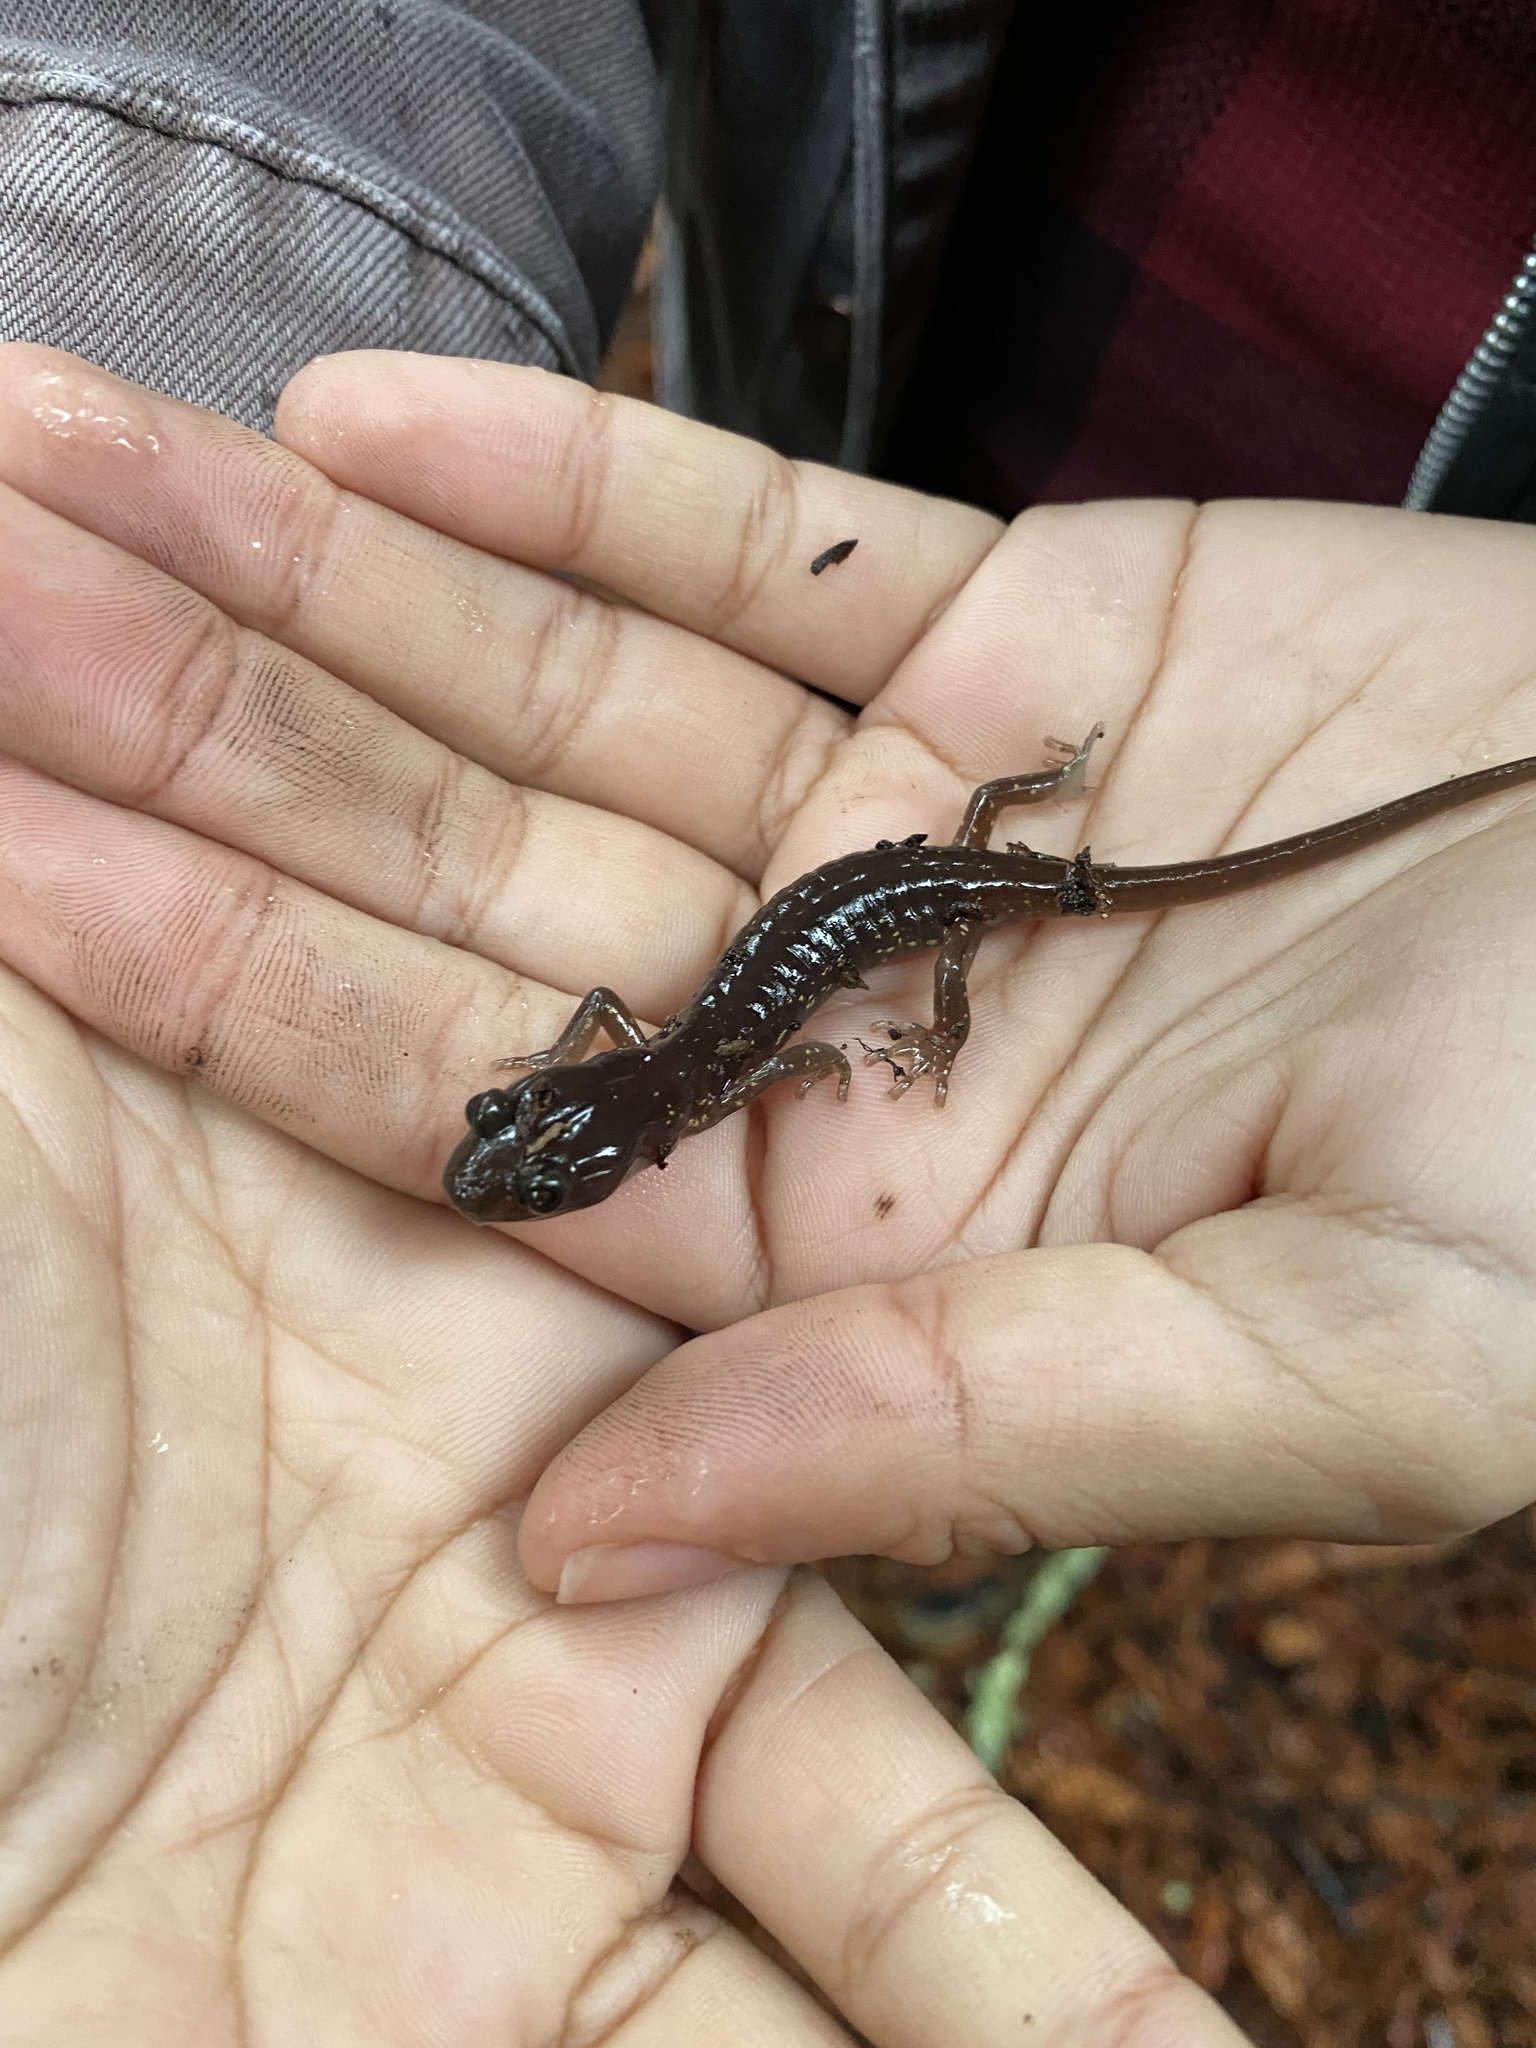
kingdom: Animalia
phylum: Chordata
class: Amphibia
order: Caudata
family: Plethodontidae
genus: Aneides
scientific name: Aneides lugubris
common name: Arboreal salamander
